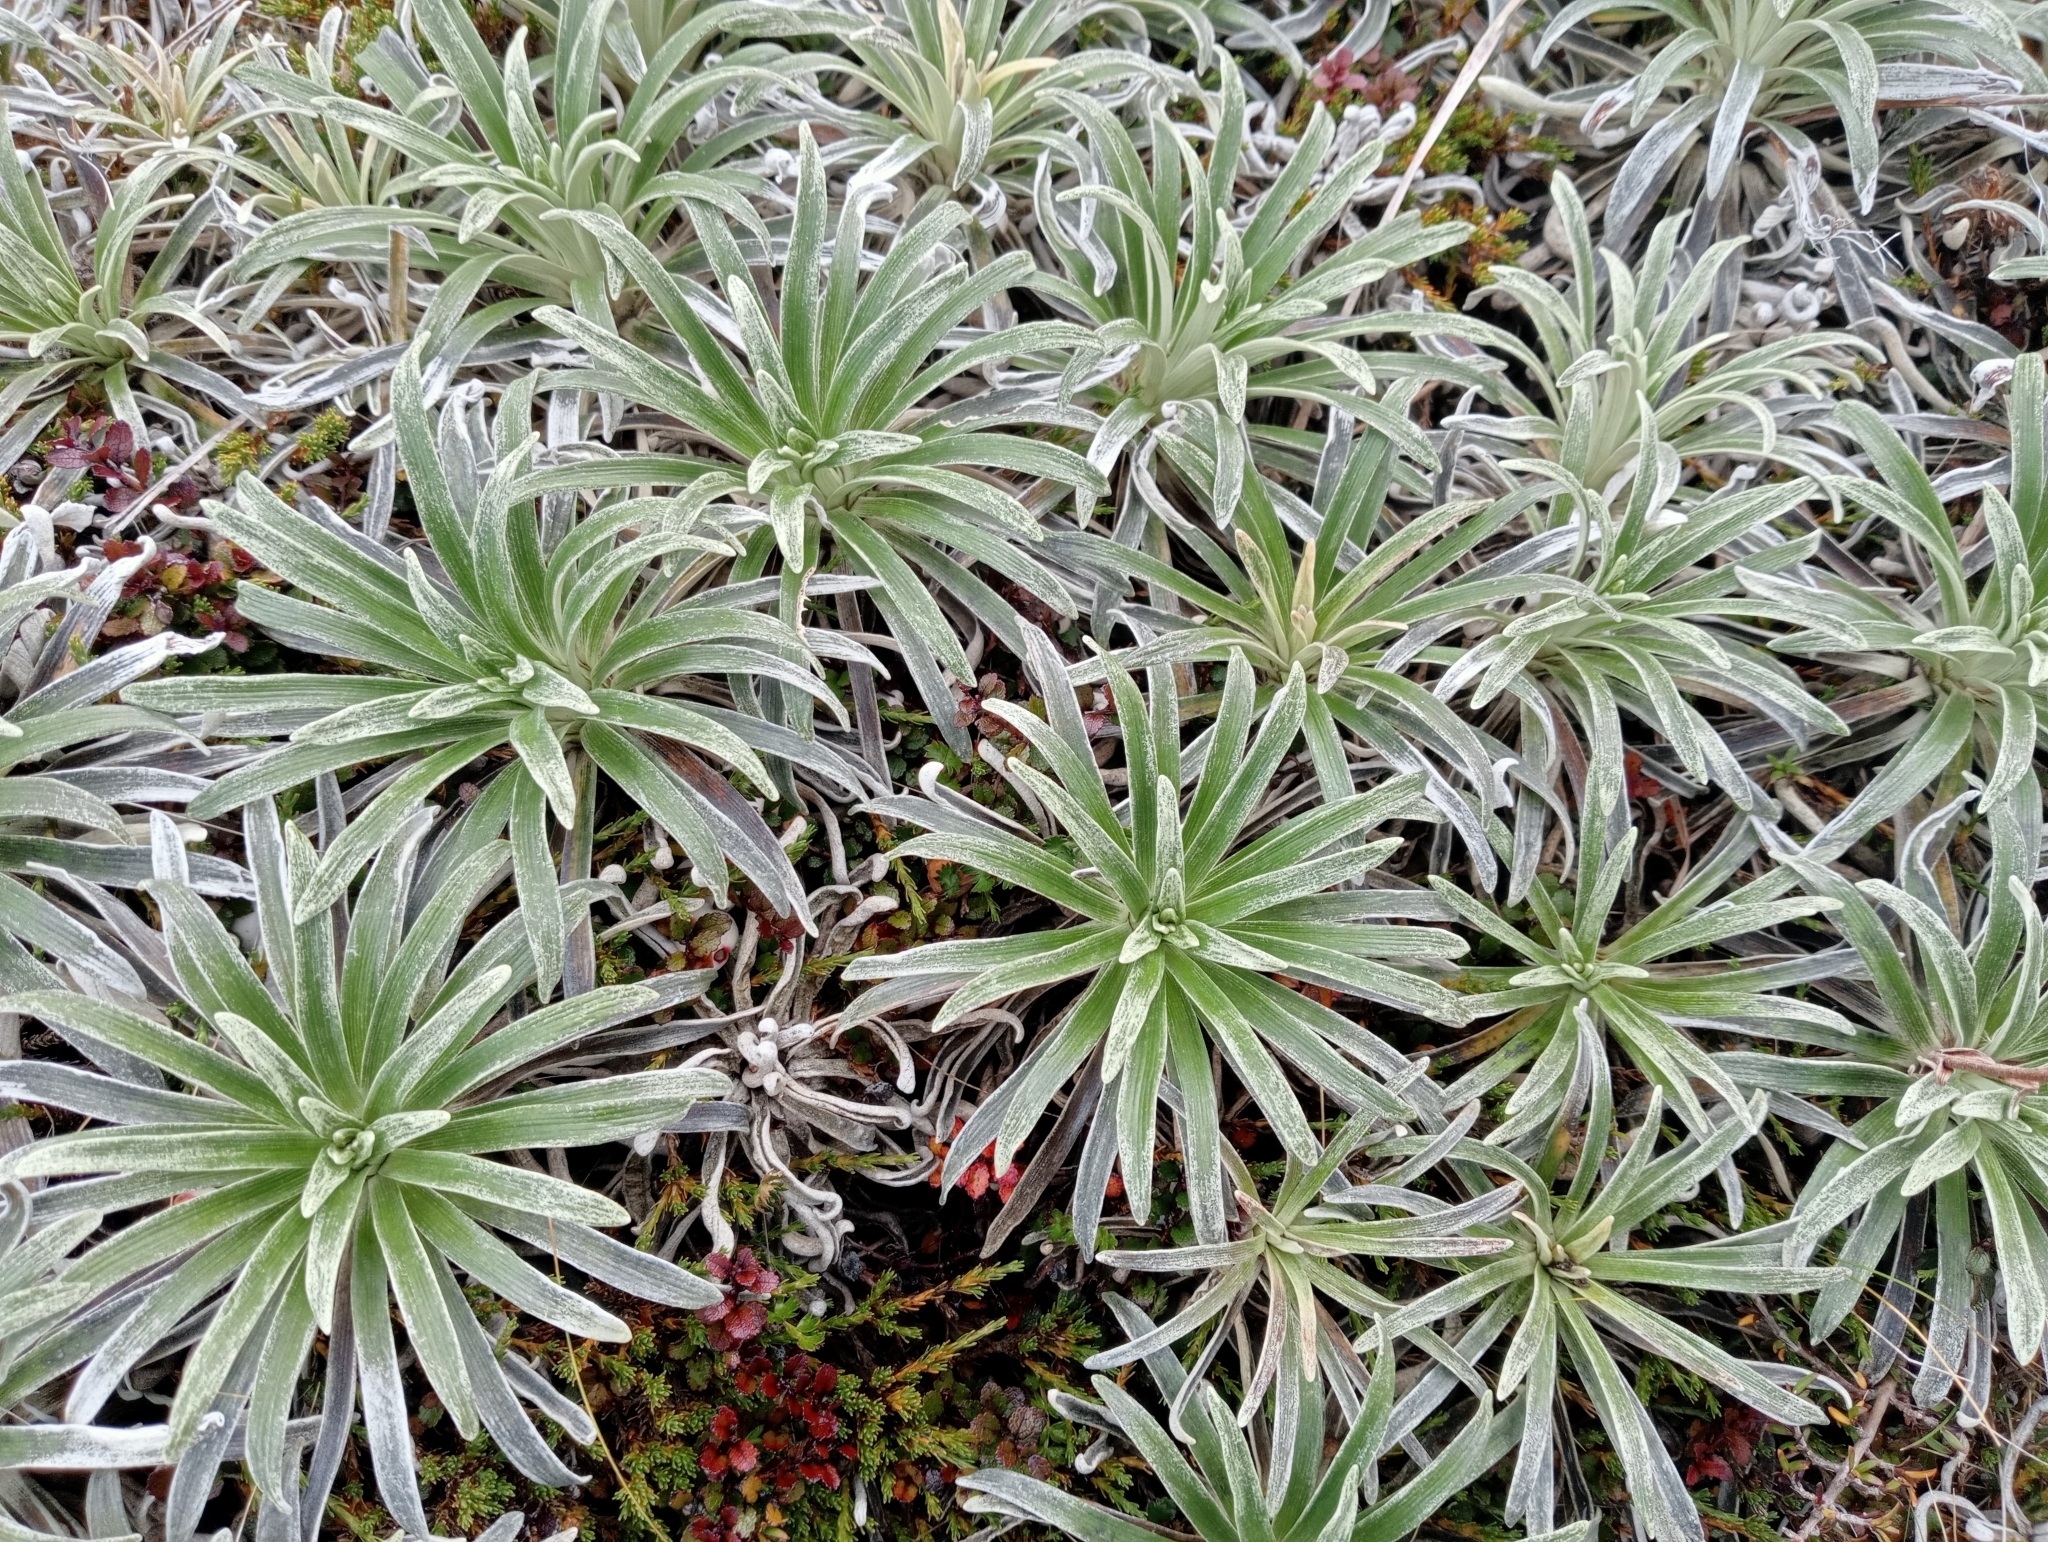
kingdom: Plantae
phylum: Tracheophyta
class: Magnoliopsida
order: Asterales
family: Asteraceae
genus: Celmisia
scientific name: Celmisia viscosa
